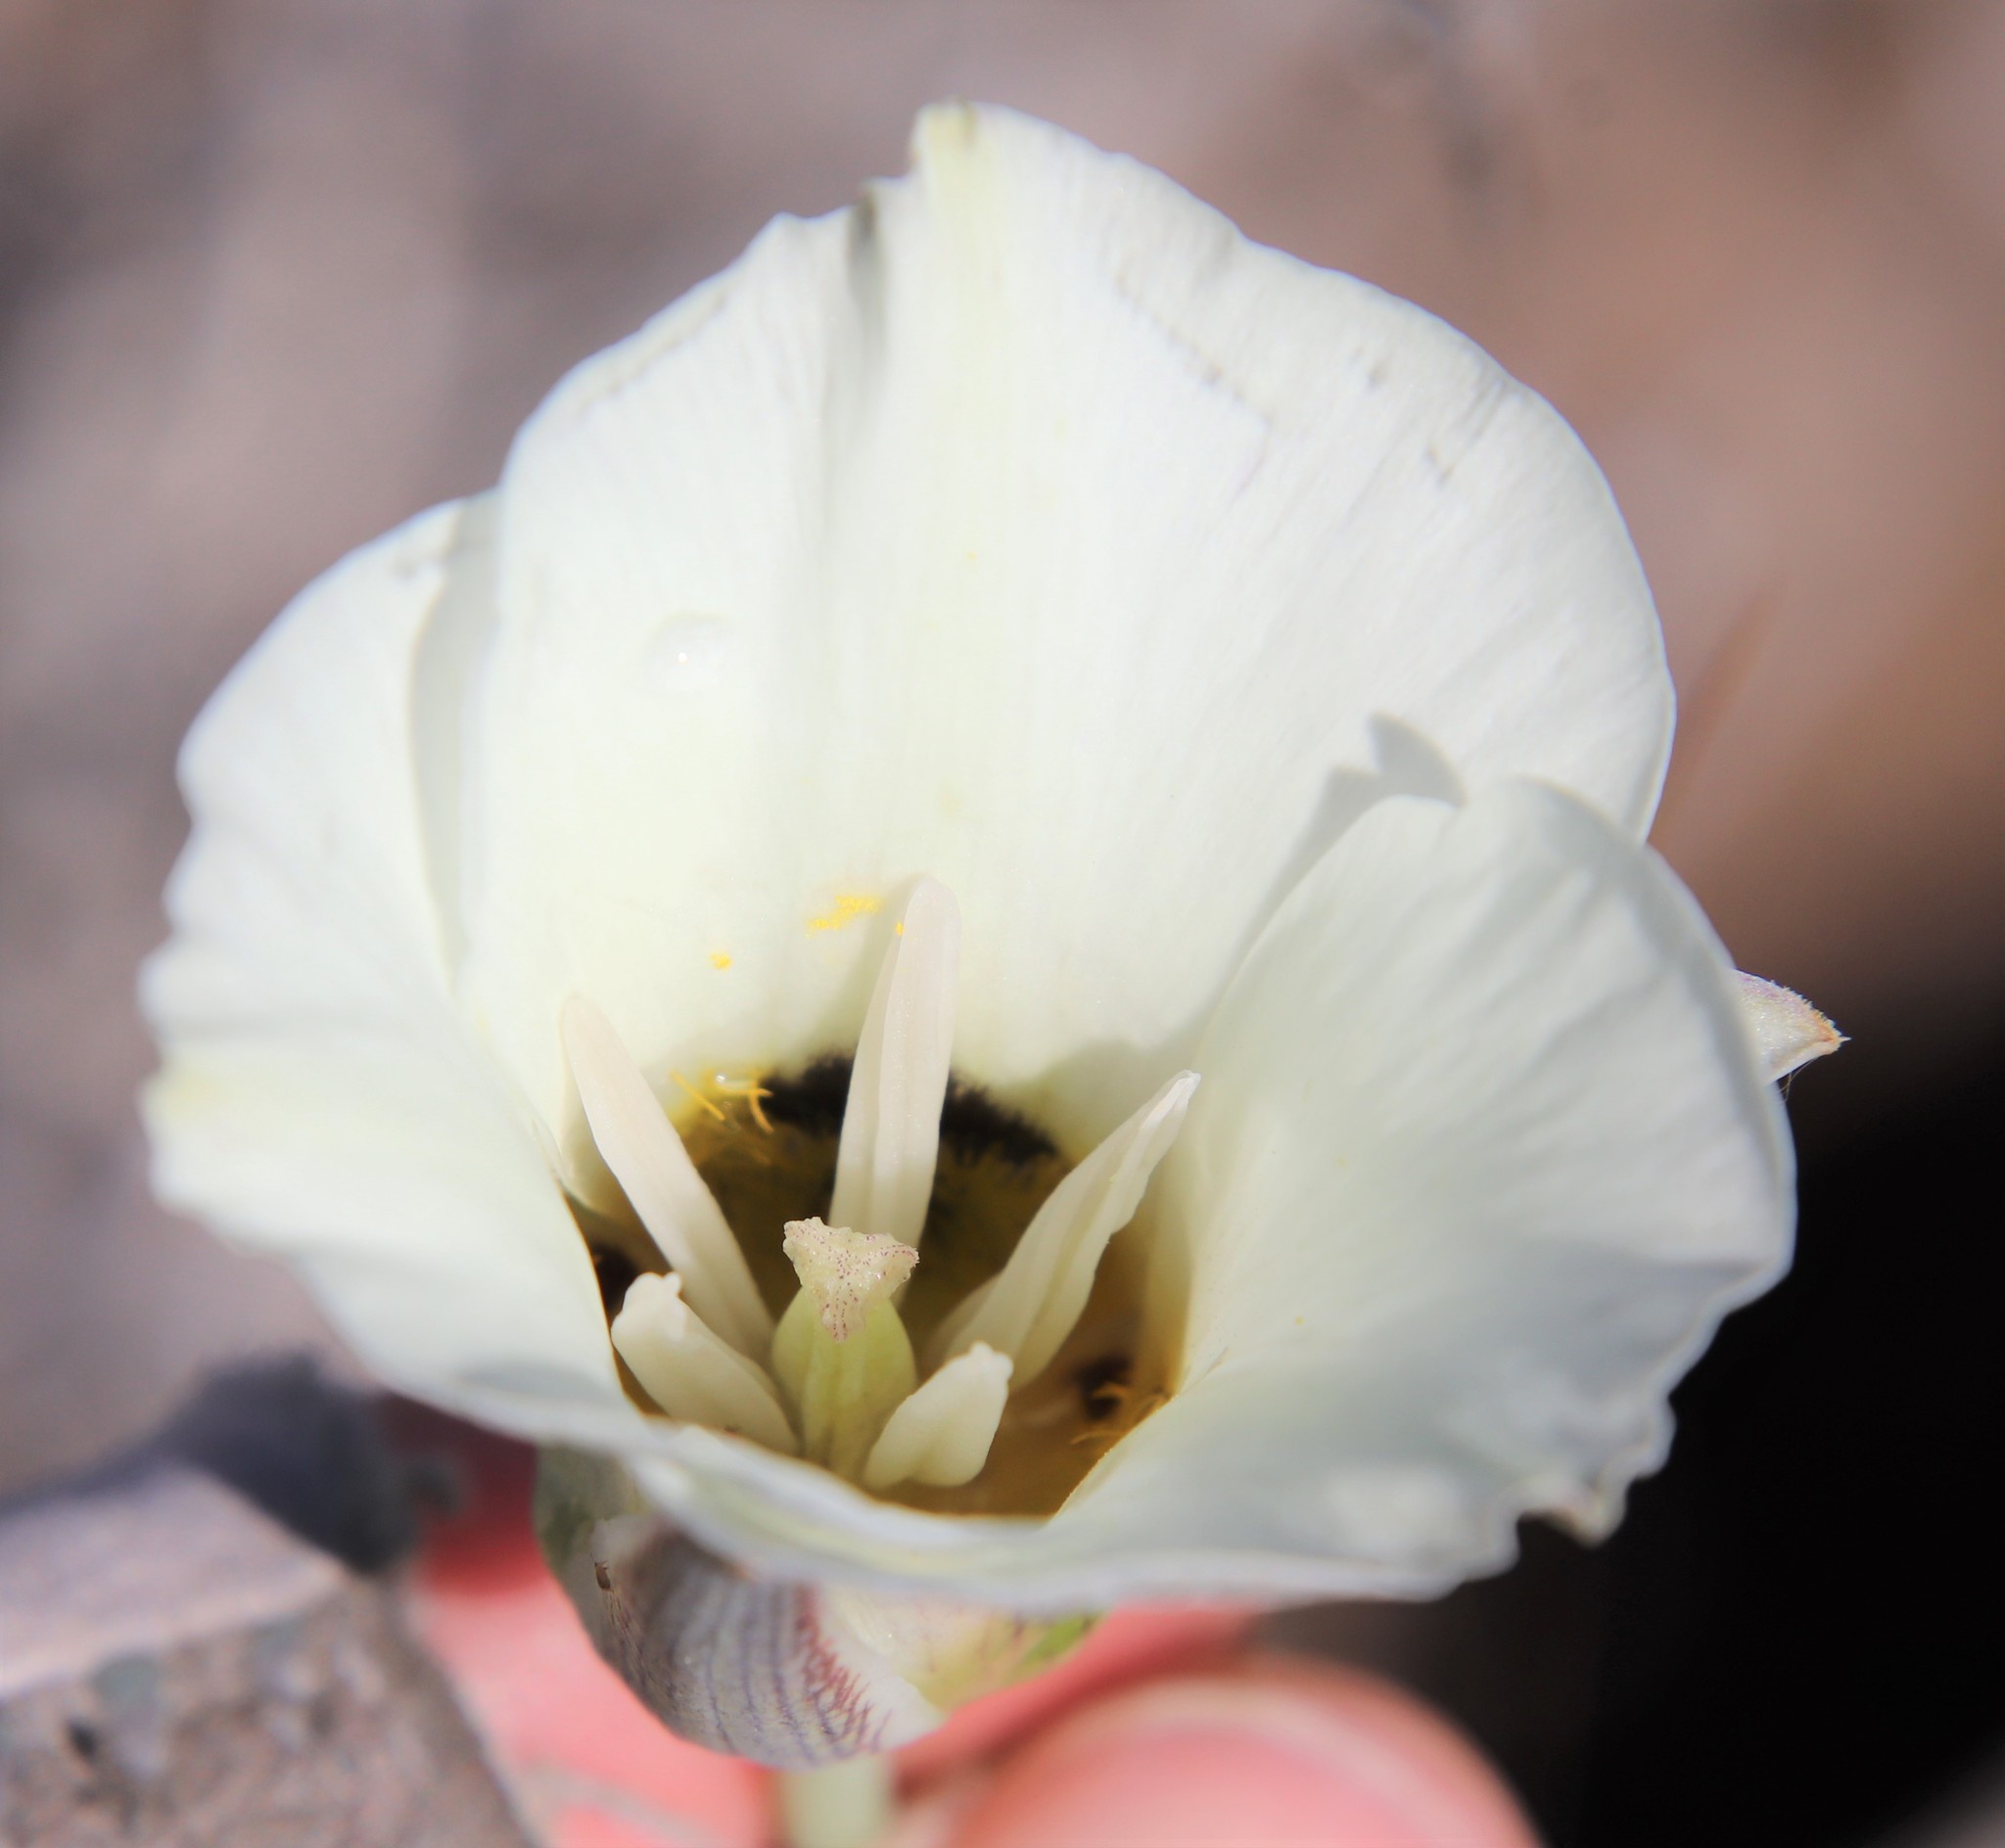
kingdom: Plantae
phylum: Tracheophyta
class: Liliopsida
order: Liliales
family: Liliaceae
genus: Calochortus
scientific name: Calochortus leichtlinii
